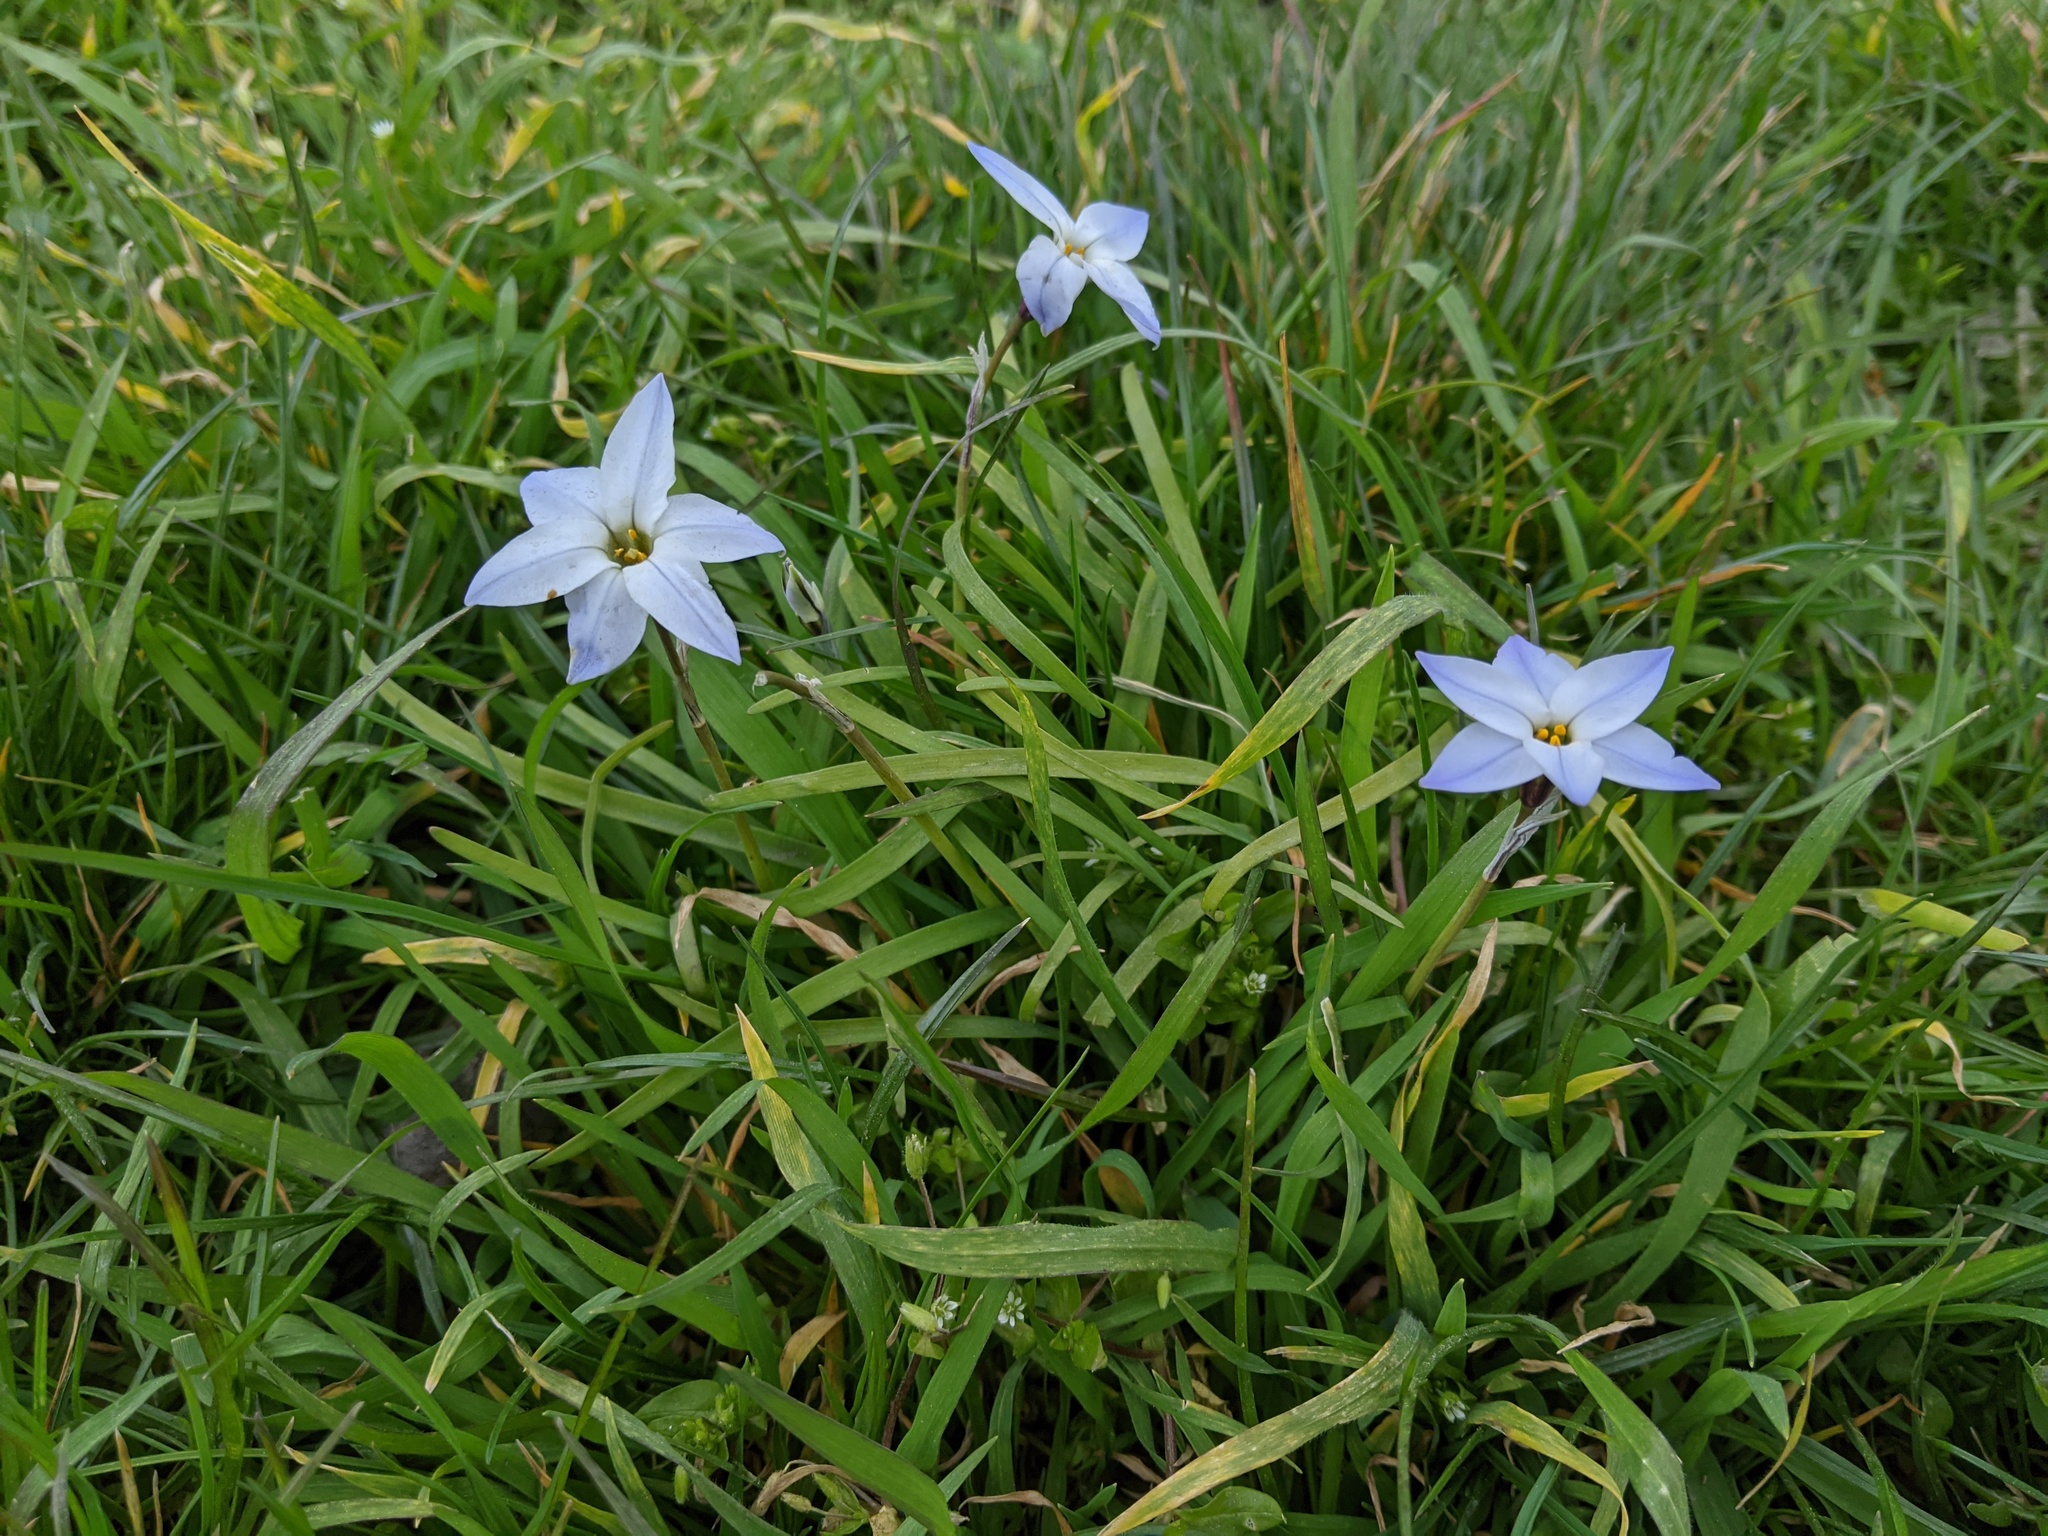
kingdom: Plantae
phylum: Tracheophyta
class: Liliopsida
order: Asparagales
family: Amaryllidaceae
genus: Ipheion
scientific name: Ipheion uniflorum
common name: Spring starflower
